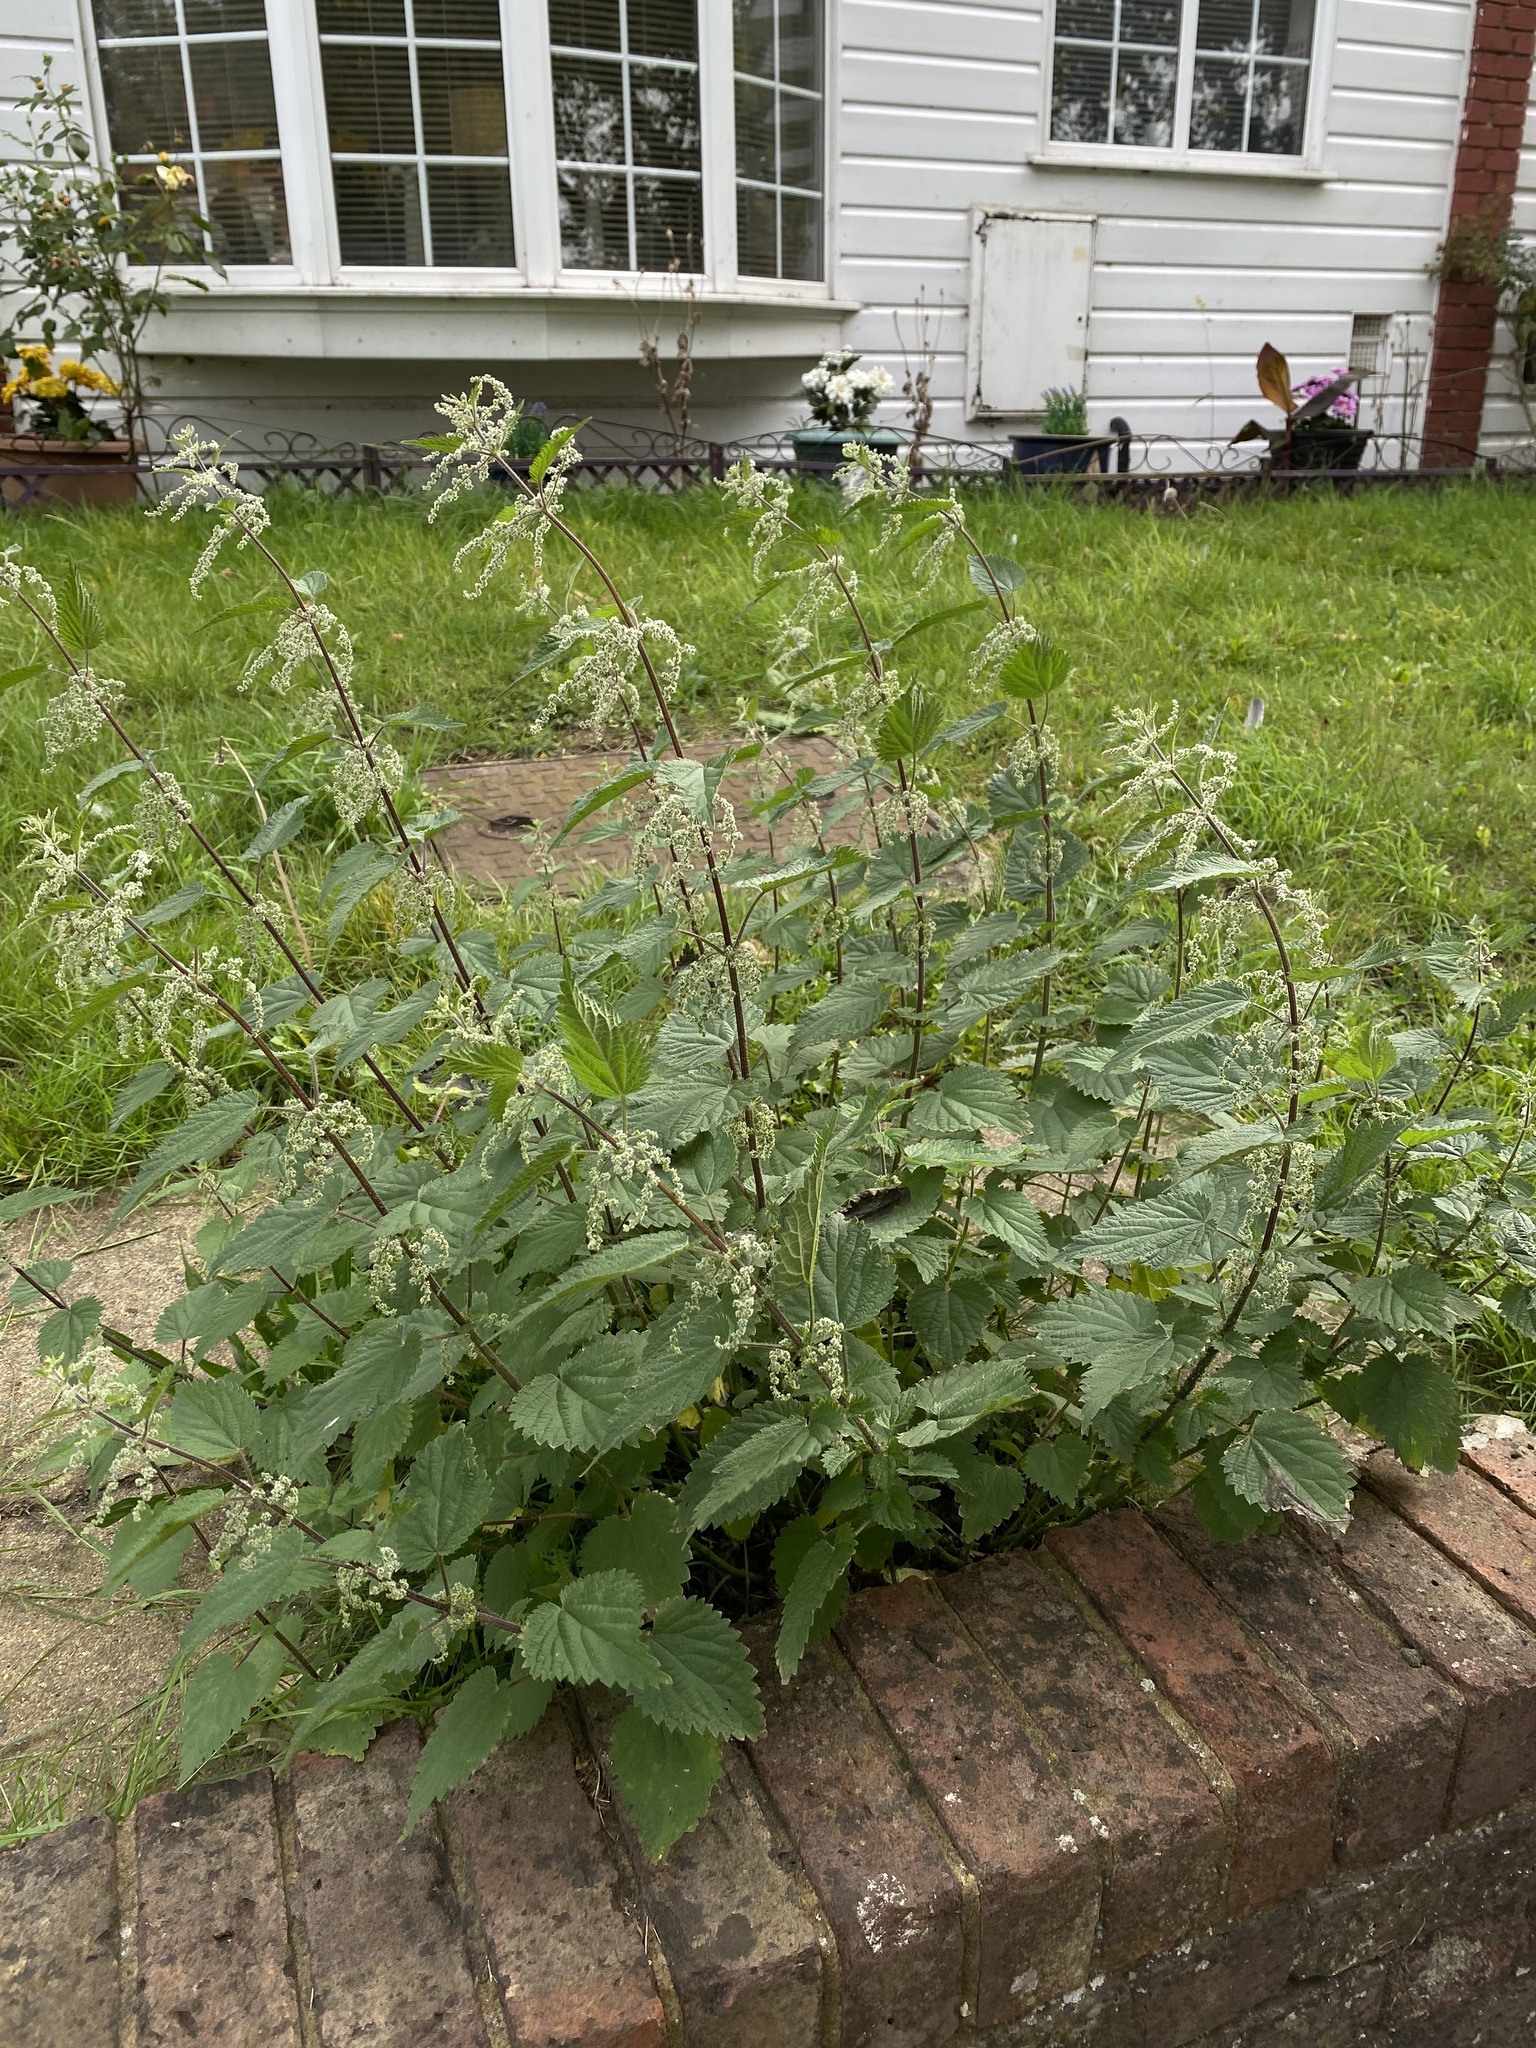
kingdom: Plantae
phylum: Tracheophyta
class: Magnoliopsida
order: Rosales
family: Urticaceae
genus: Urtica
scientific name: Urtica dioica
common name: Common nettle
